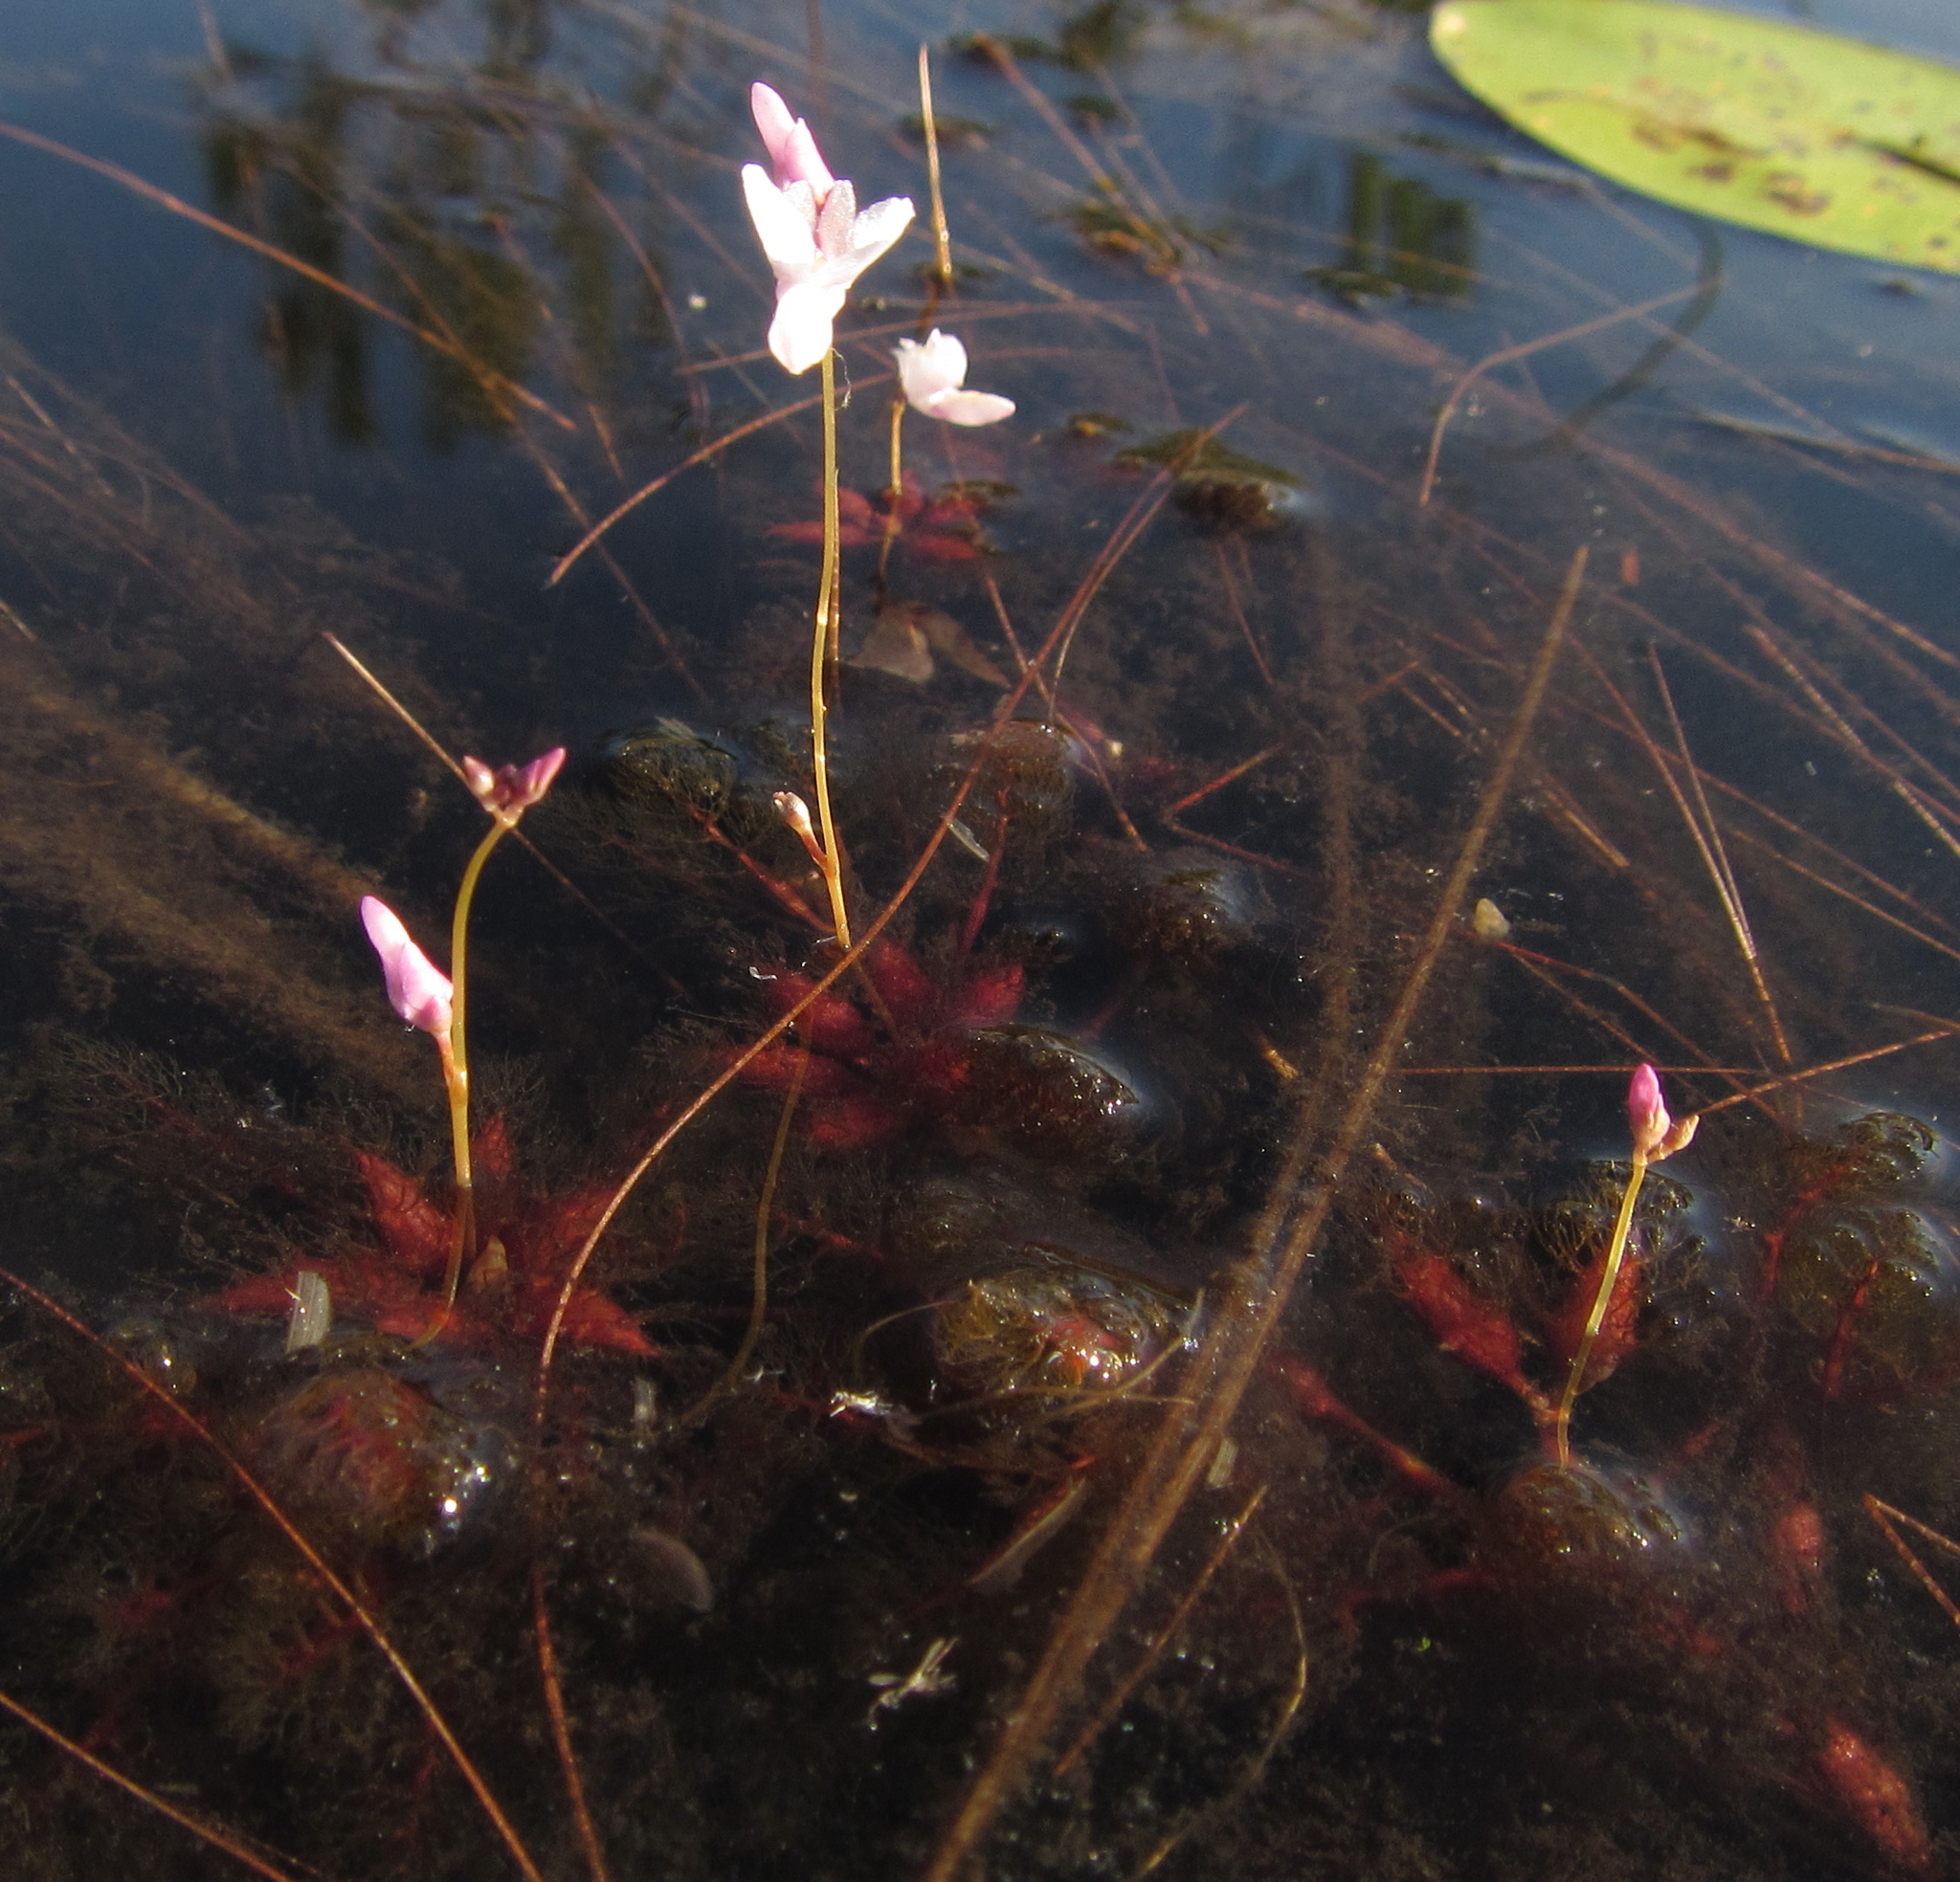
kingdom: Plantae
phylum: Tracheophyta
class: Magnoliopsida
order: Lamiales
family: Lentibulariaceae
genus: Utricularia
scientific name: Utricularia benjaminiana
